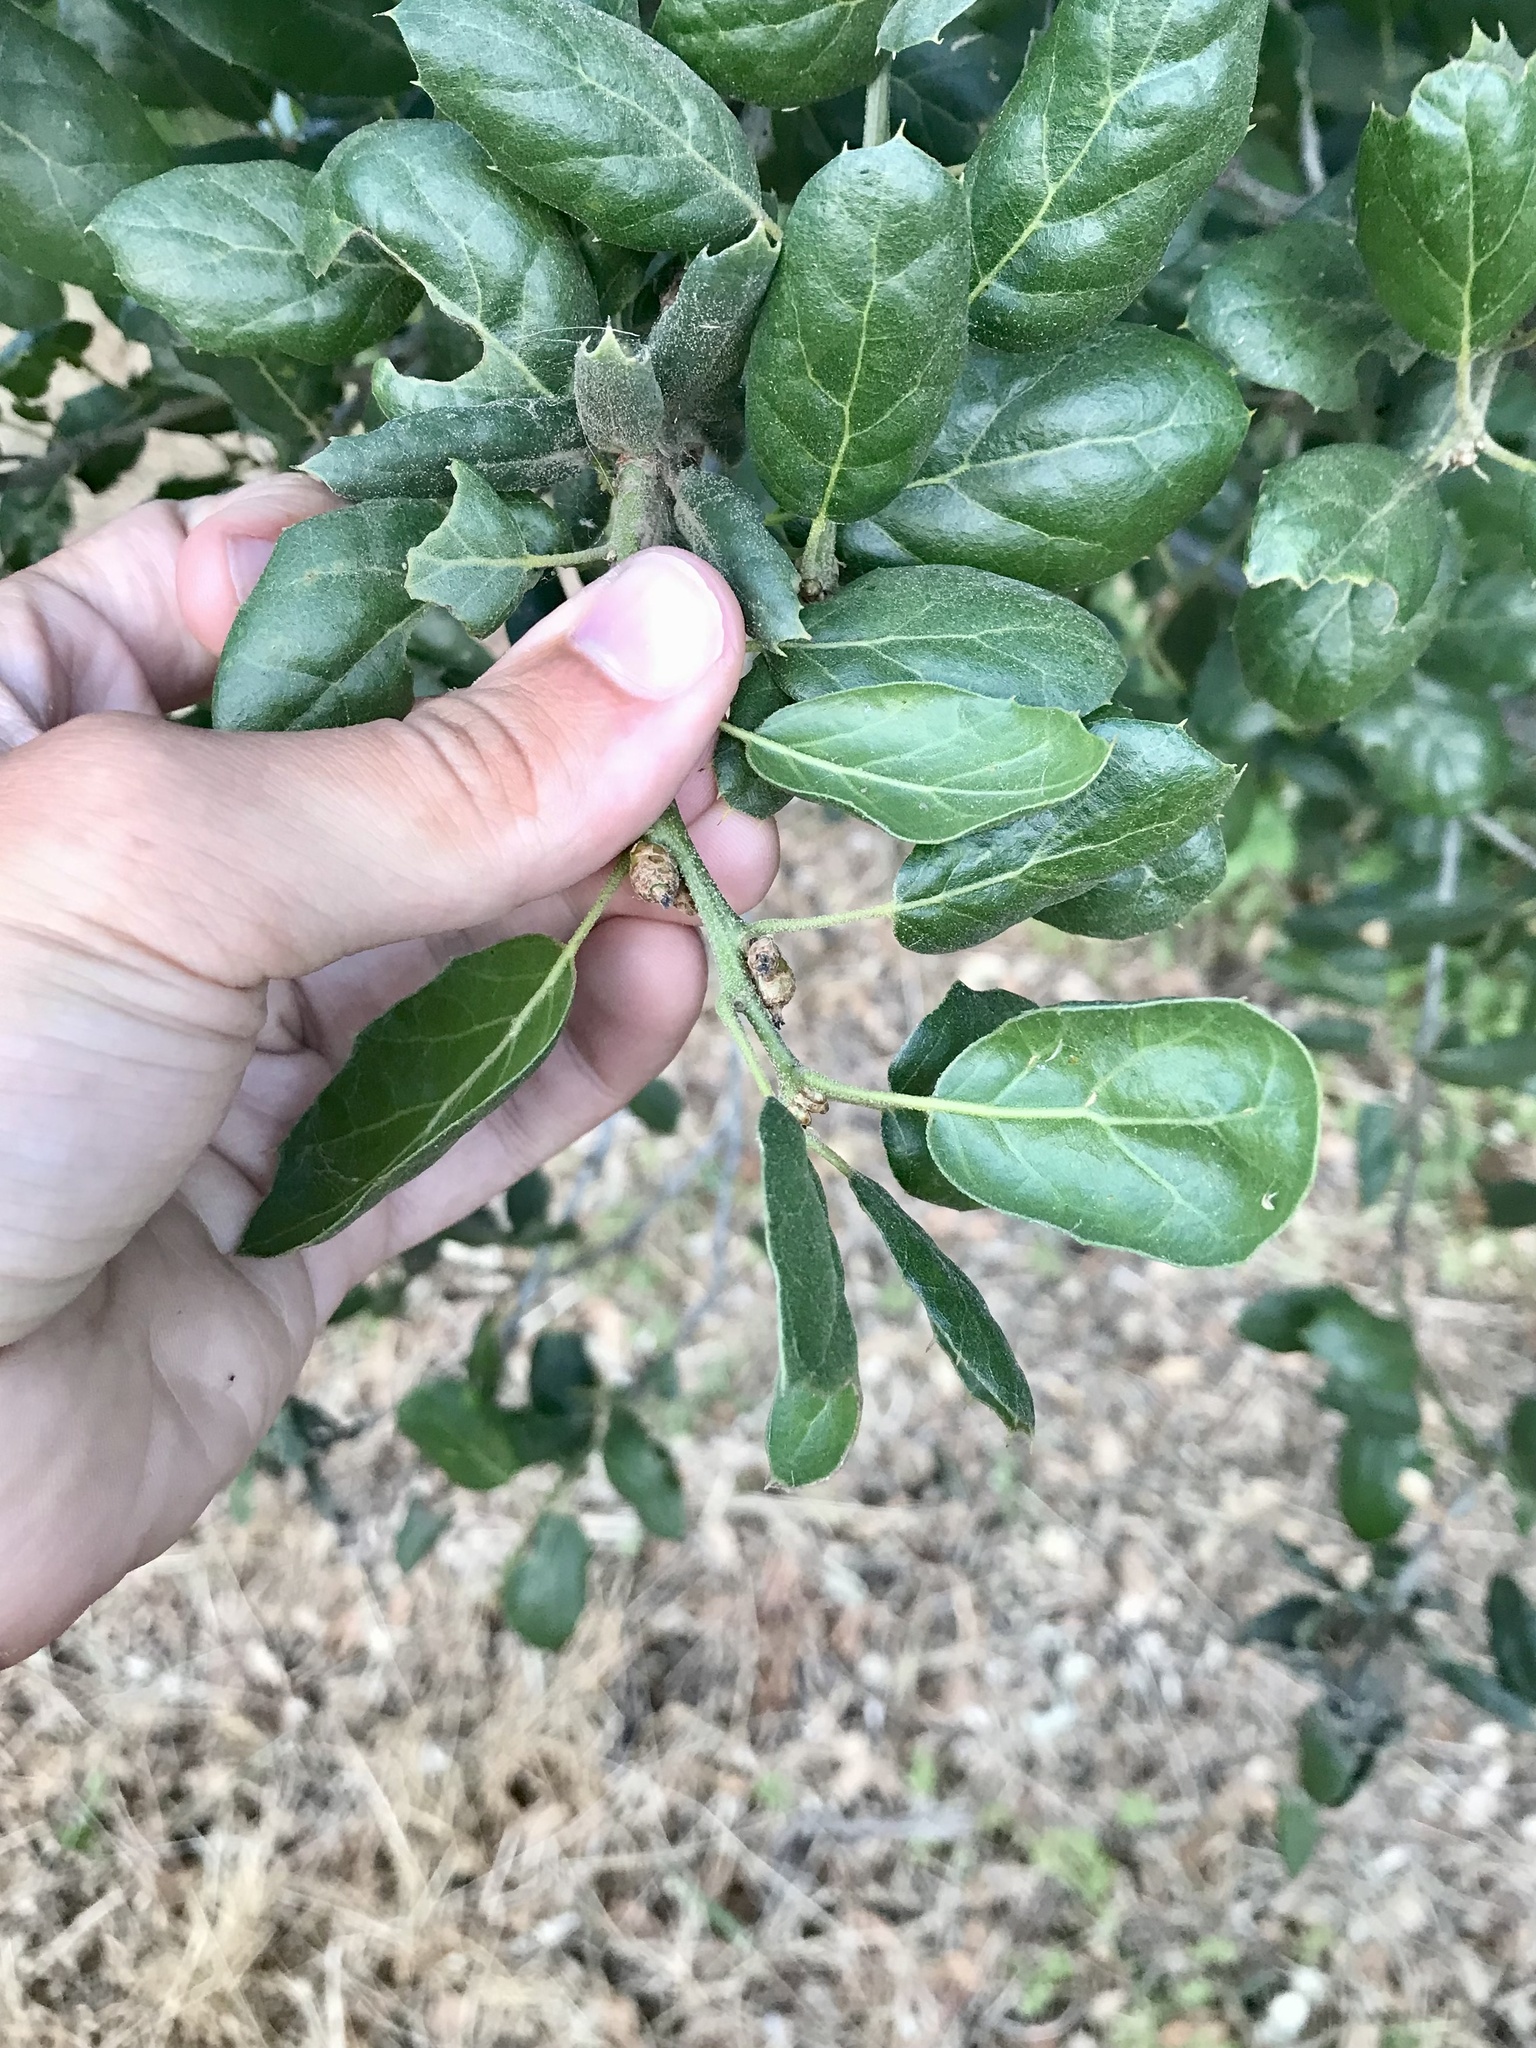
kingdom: Plantae
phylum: Tracheophyta
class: Magnoliopsida
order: Fagales
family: Fagaceae
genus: Quercus
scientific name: Quercus agrifolia
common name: California live oak
